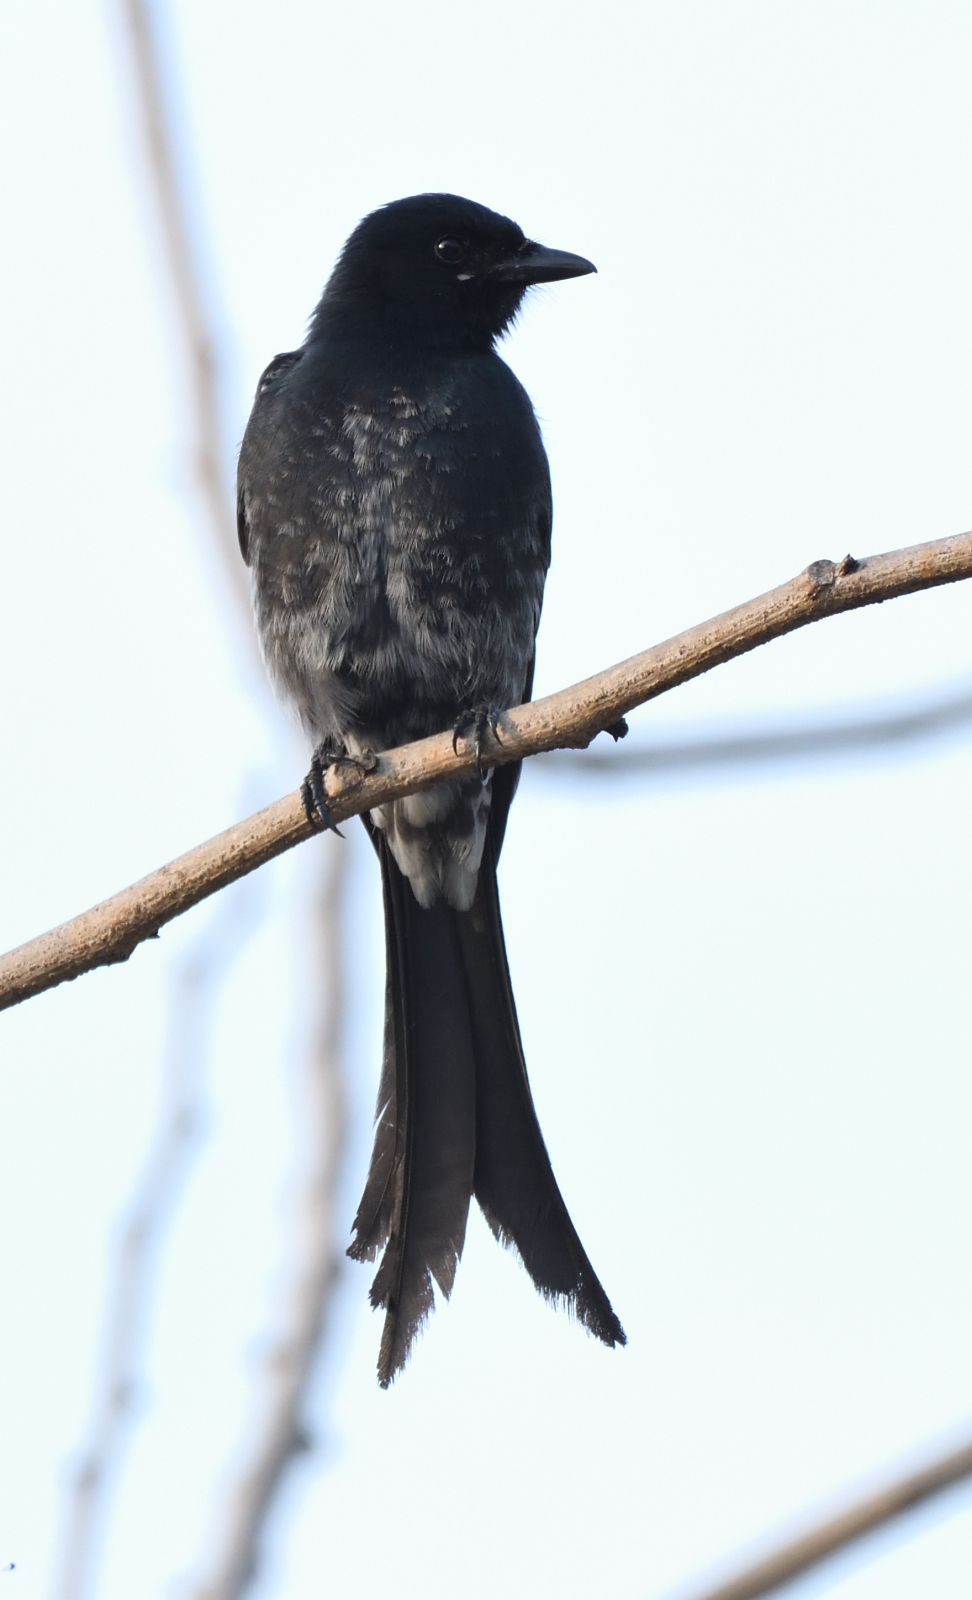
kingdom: Animalia
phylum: Chordata
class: Aves
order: Passeriformes
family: Dicruridae
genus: Dicrurus
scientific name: Dicrurus macrocercus
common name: Black drongo
